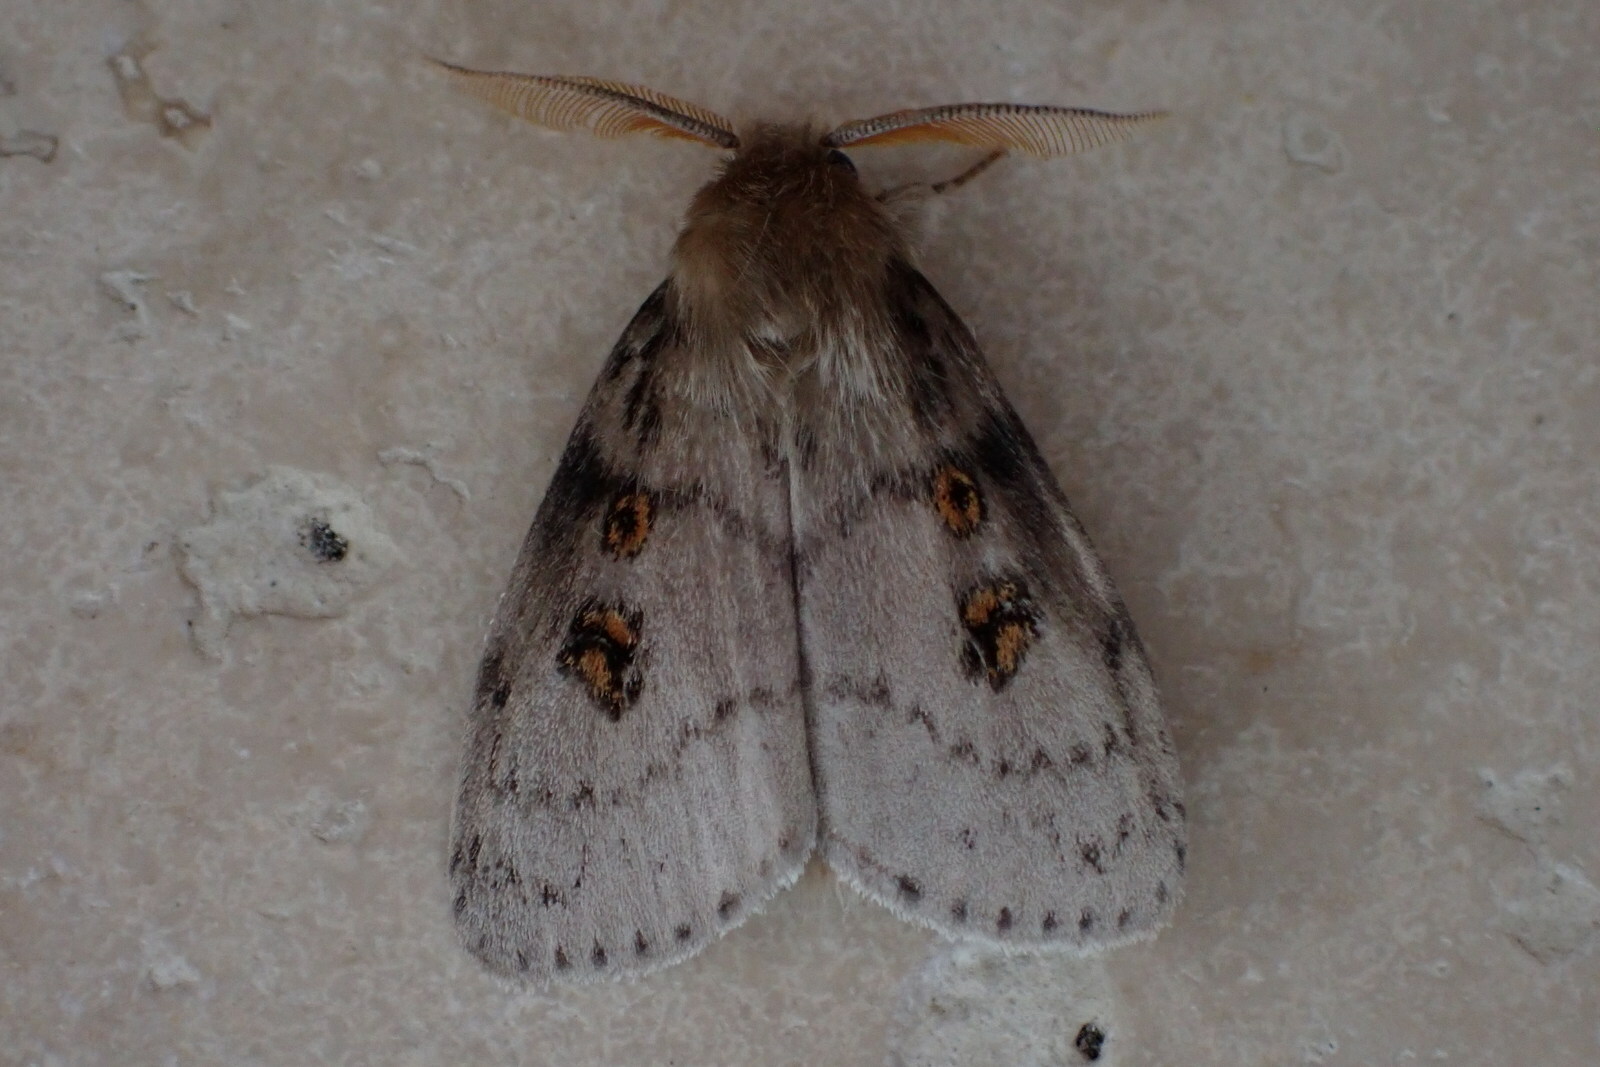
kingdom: Animalia
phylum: Arthropoda
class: Insecta
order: Lepidoptera
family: Erebidae
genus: Leptocneria
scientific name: Leptocneria reducta
